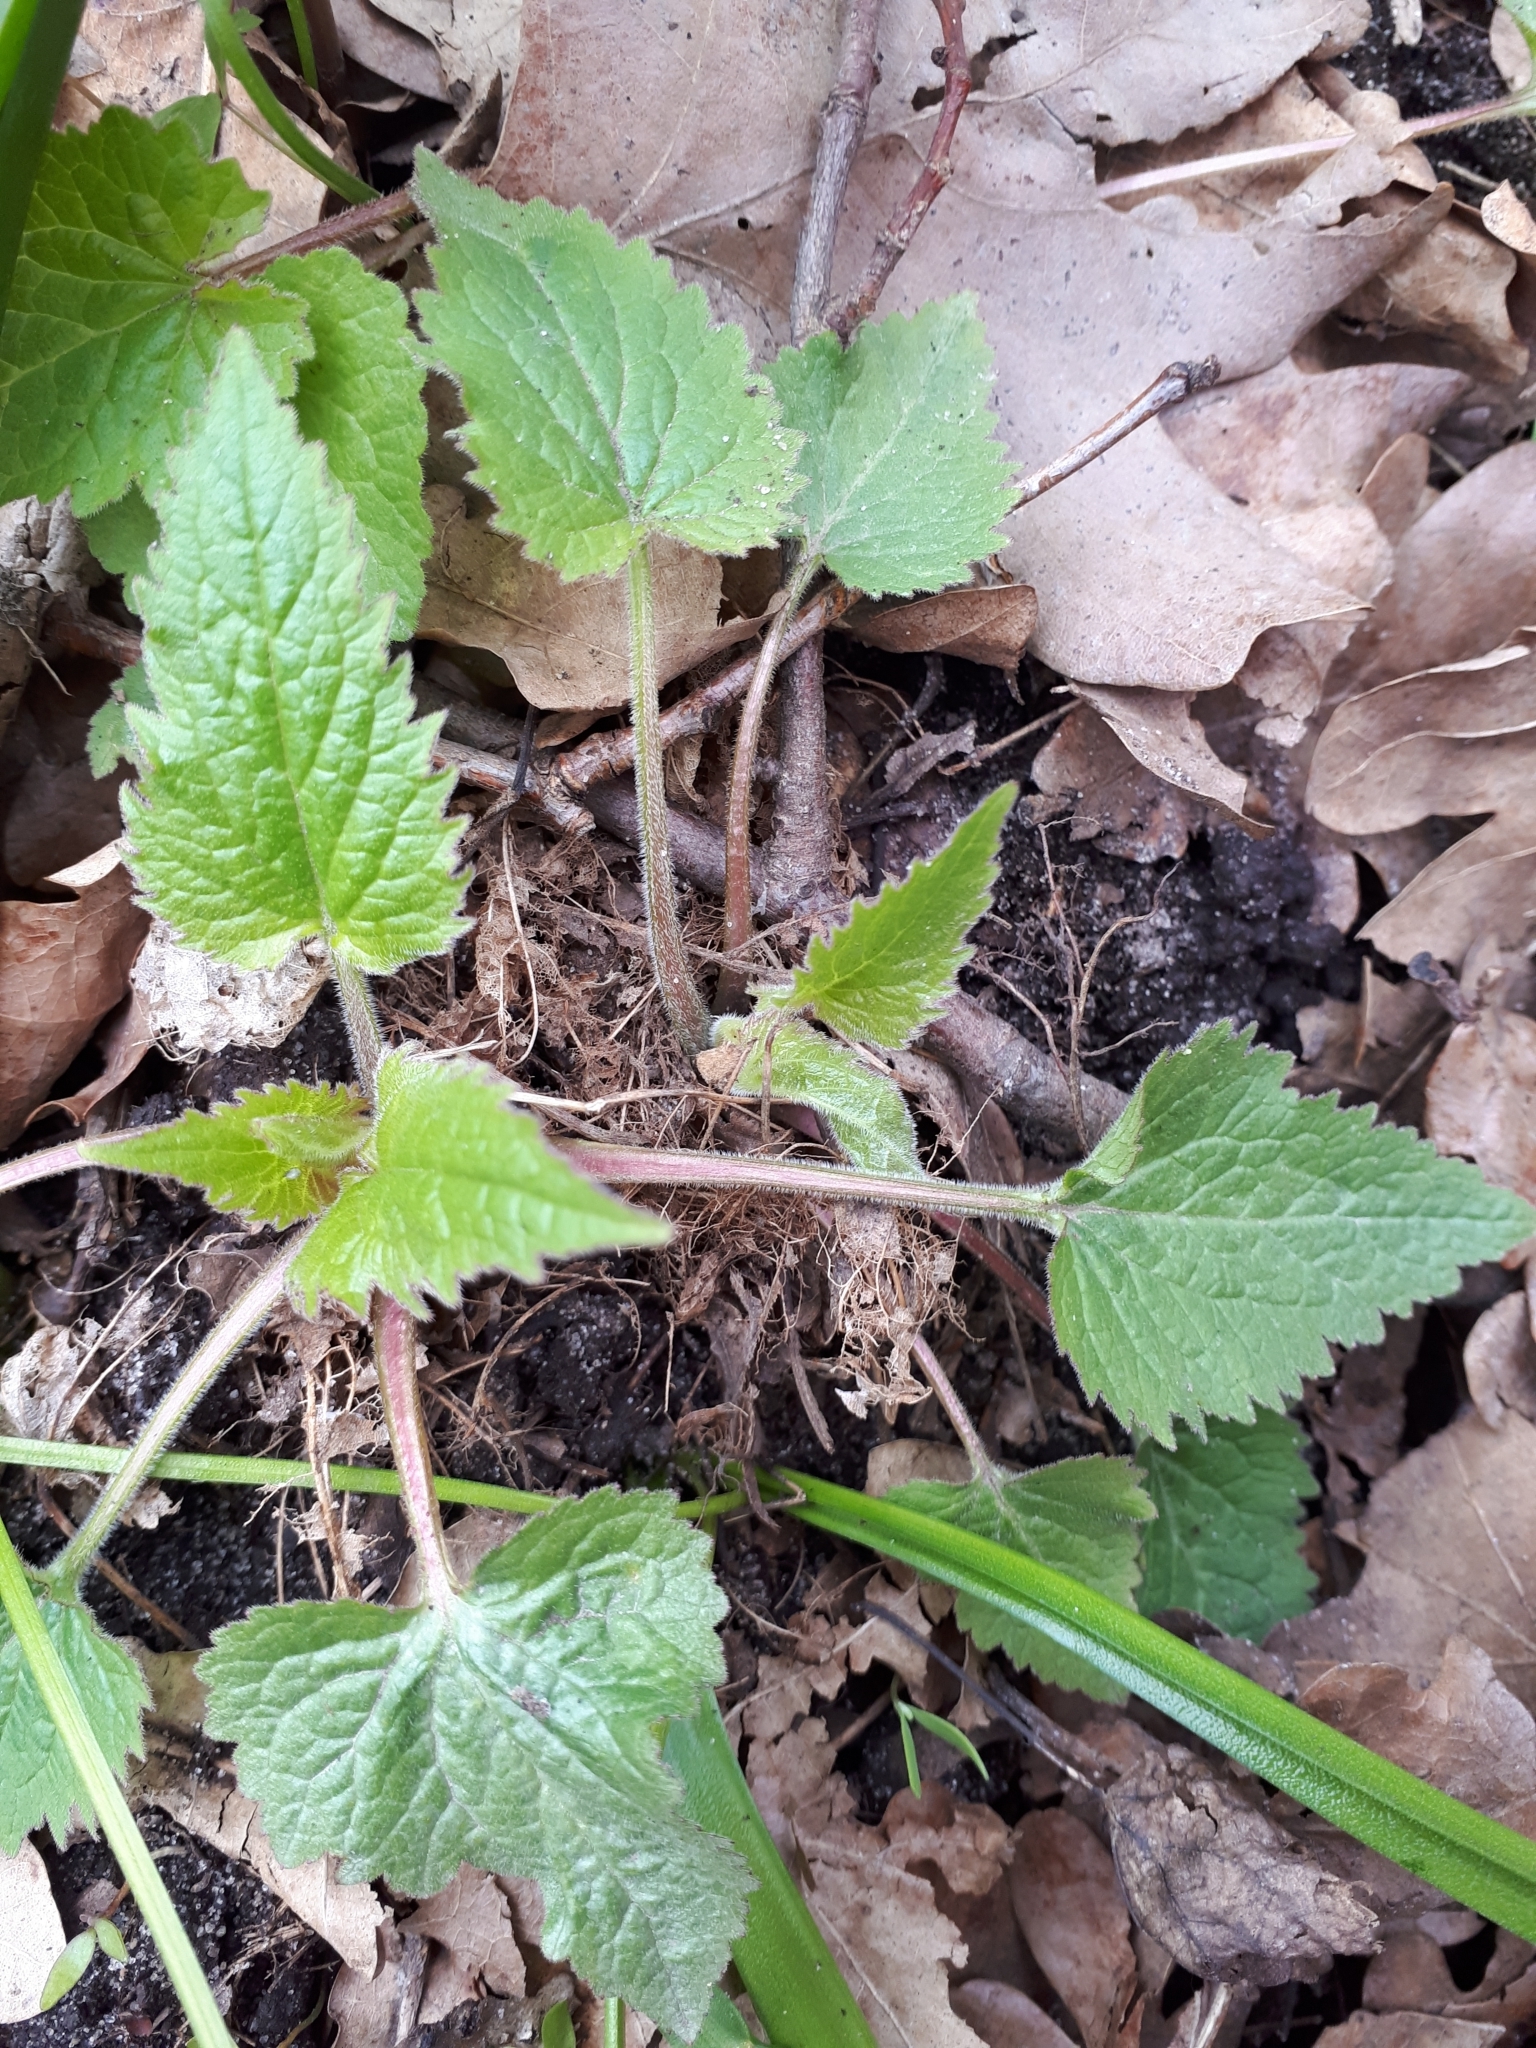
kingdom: Plantae
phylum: Tracheophyta
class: Magnoliopsida
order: Asterales
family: Campanulaceae
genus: Campanula
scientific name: Campanula trachelium
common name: Nettle-leaved bellflower
